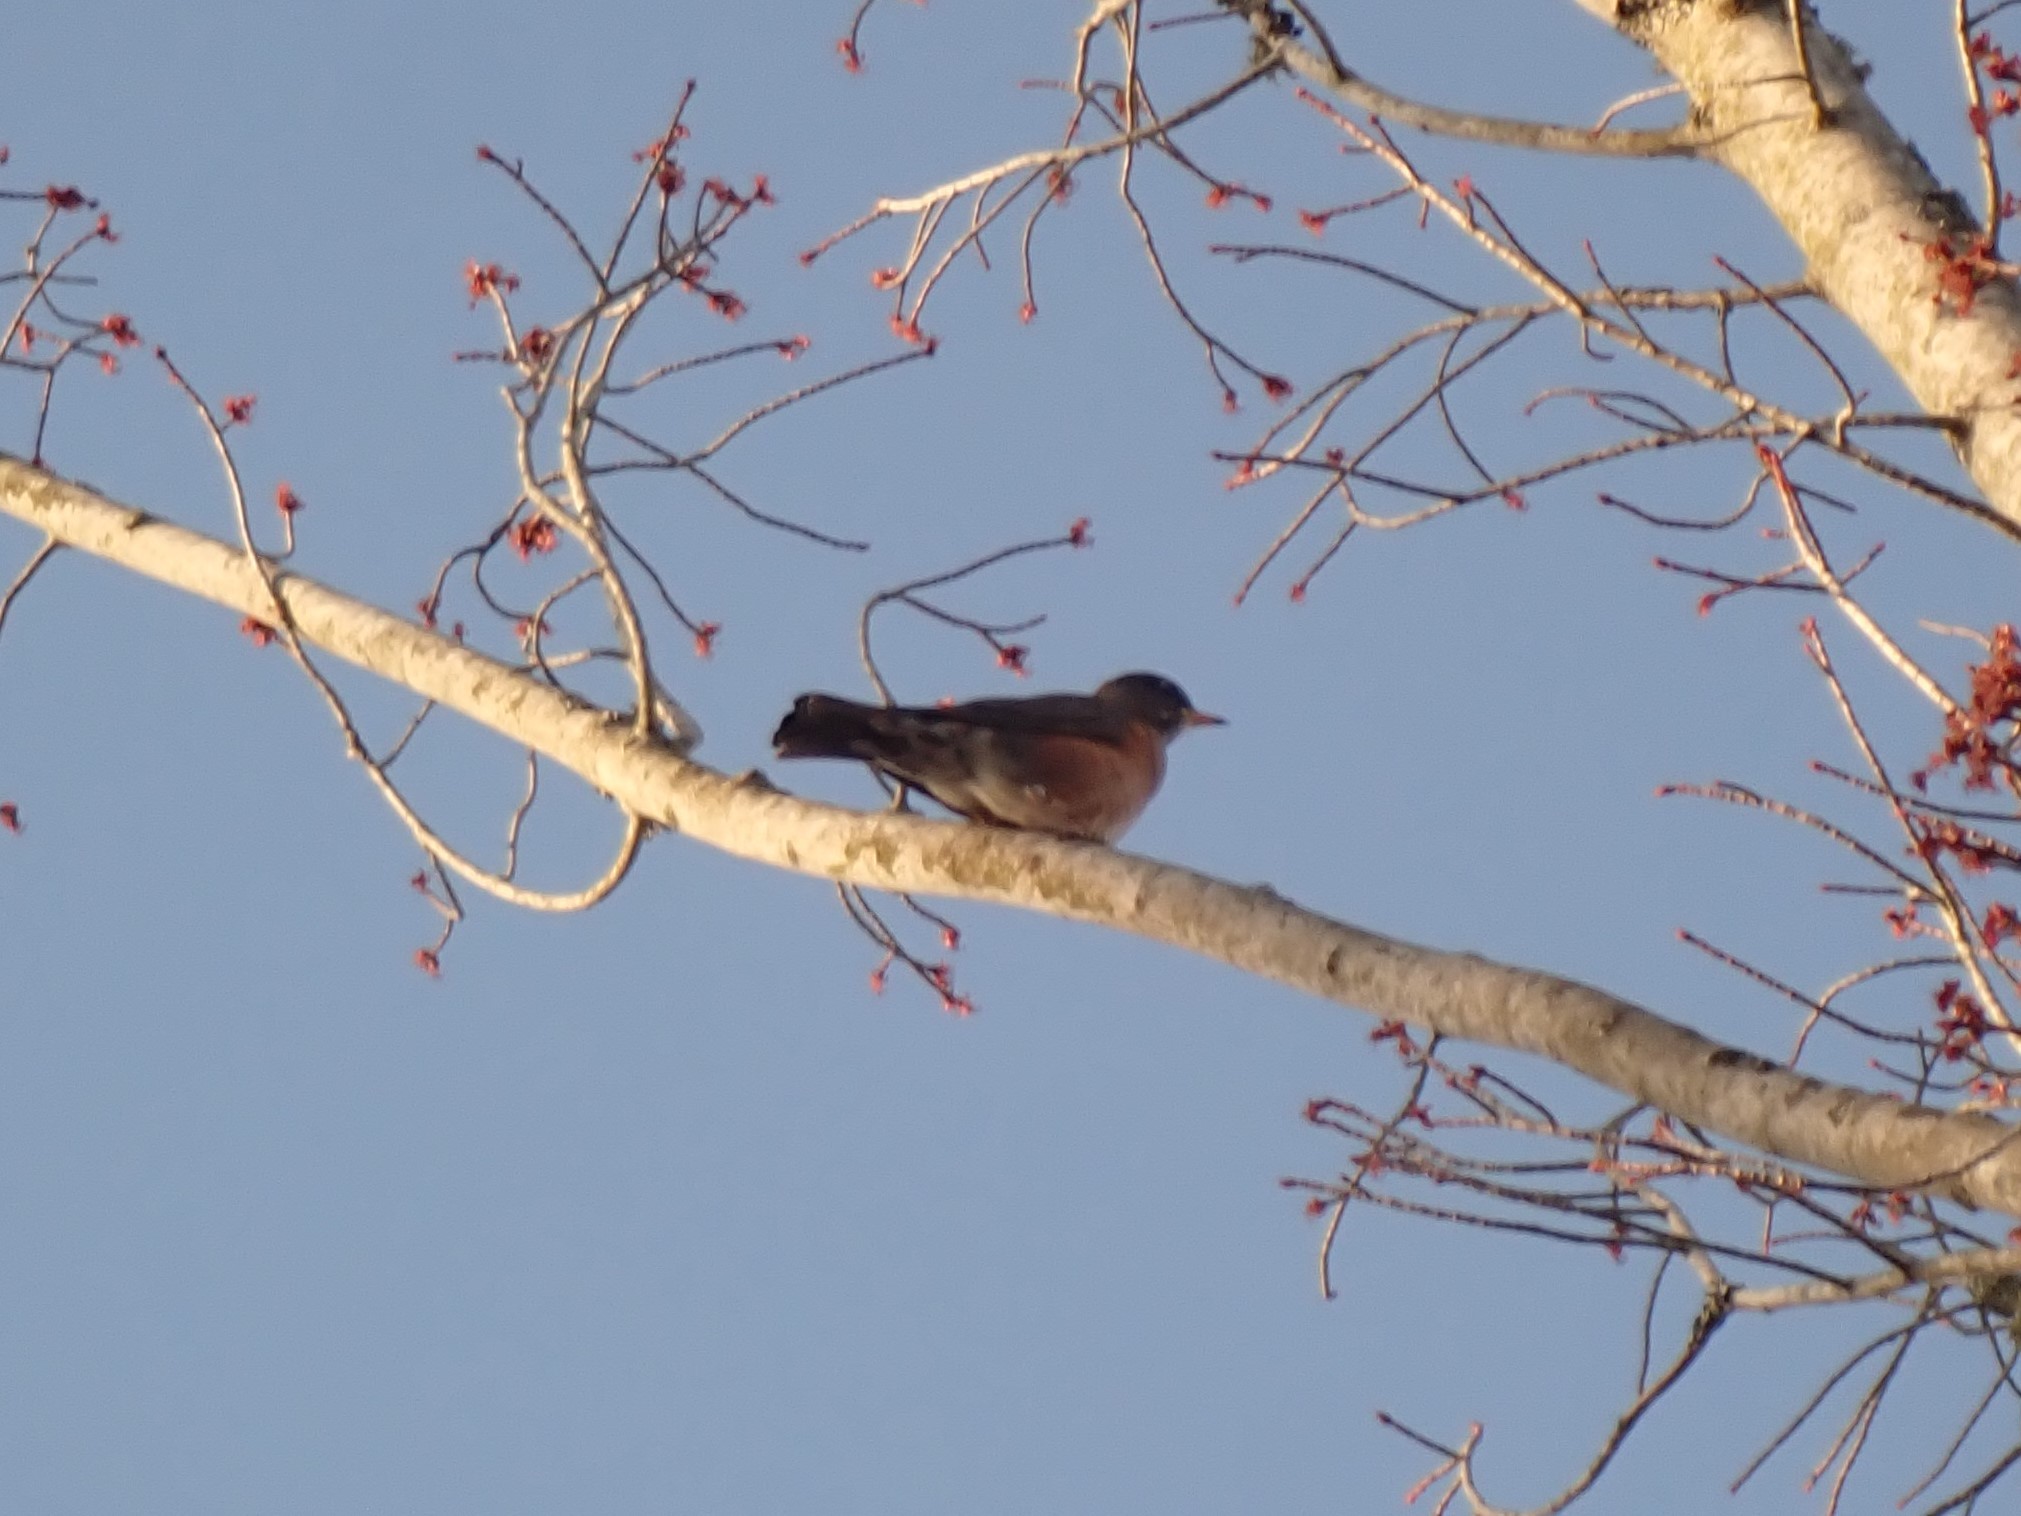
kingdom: Animalia
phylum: Chordata
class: Aves
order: Passeriformes
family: Turdidae
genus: Turdus
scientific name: Turdus migratorius
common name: American robin
